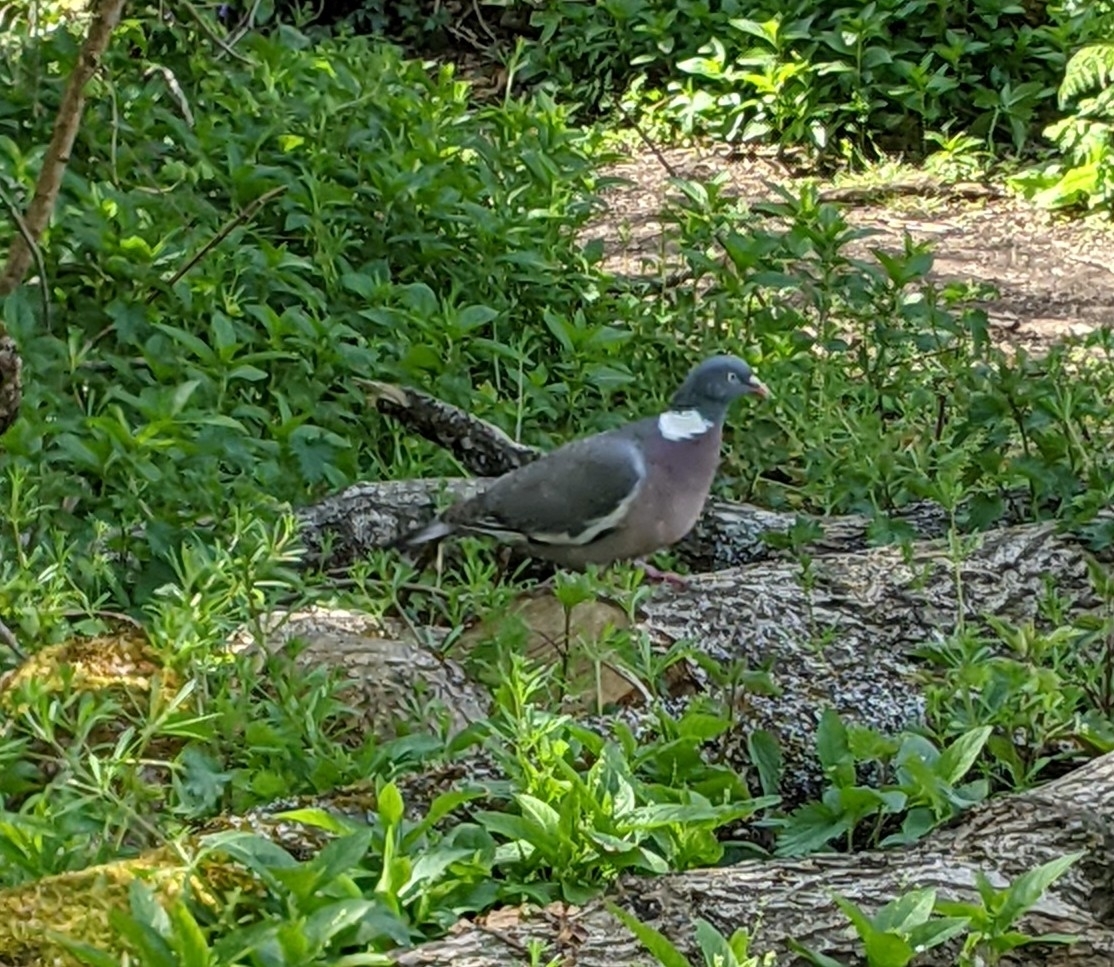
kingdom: Animalia
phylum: Chordata
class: Aves
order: Columbiformes
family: Columbidae
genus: Columba
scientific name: Columba palumbus
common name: Common wood pigeon
